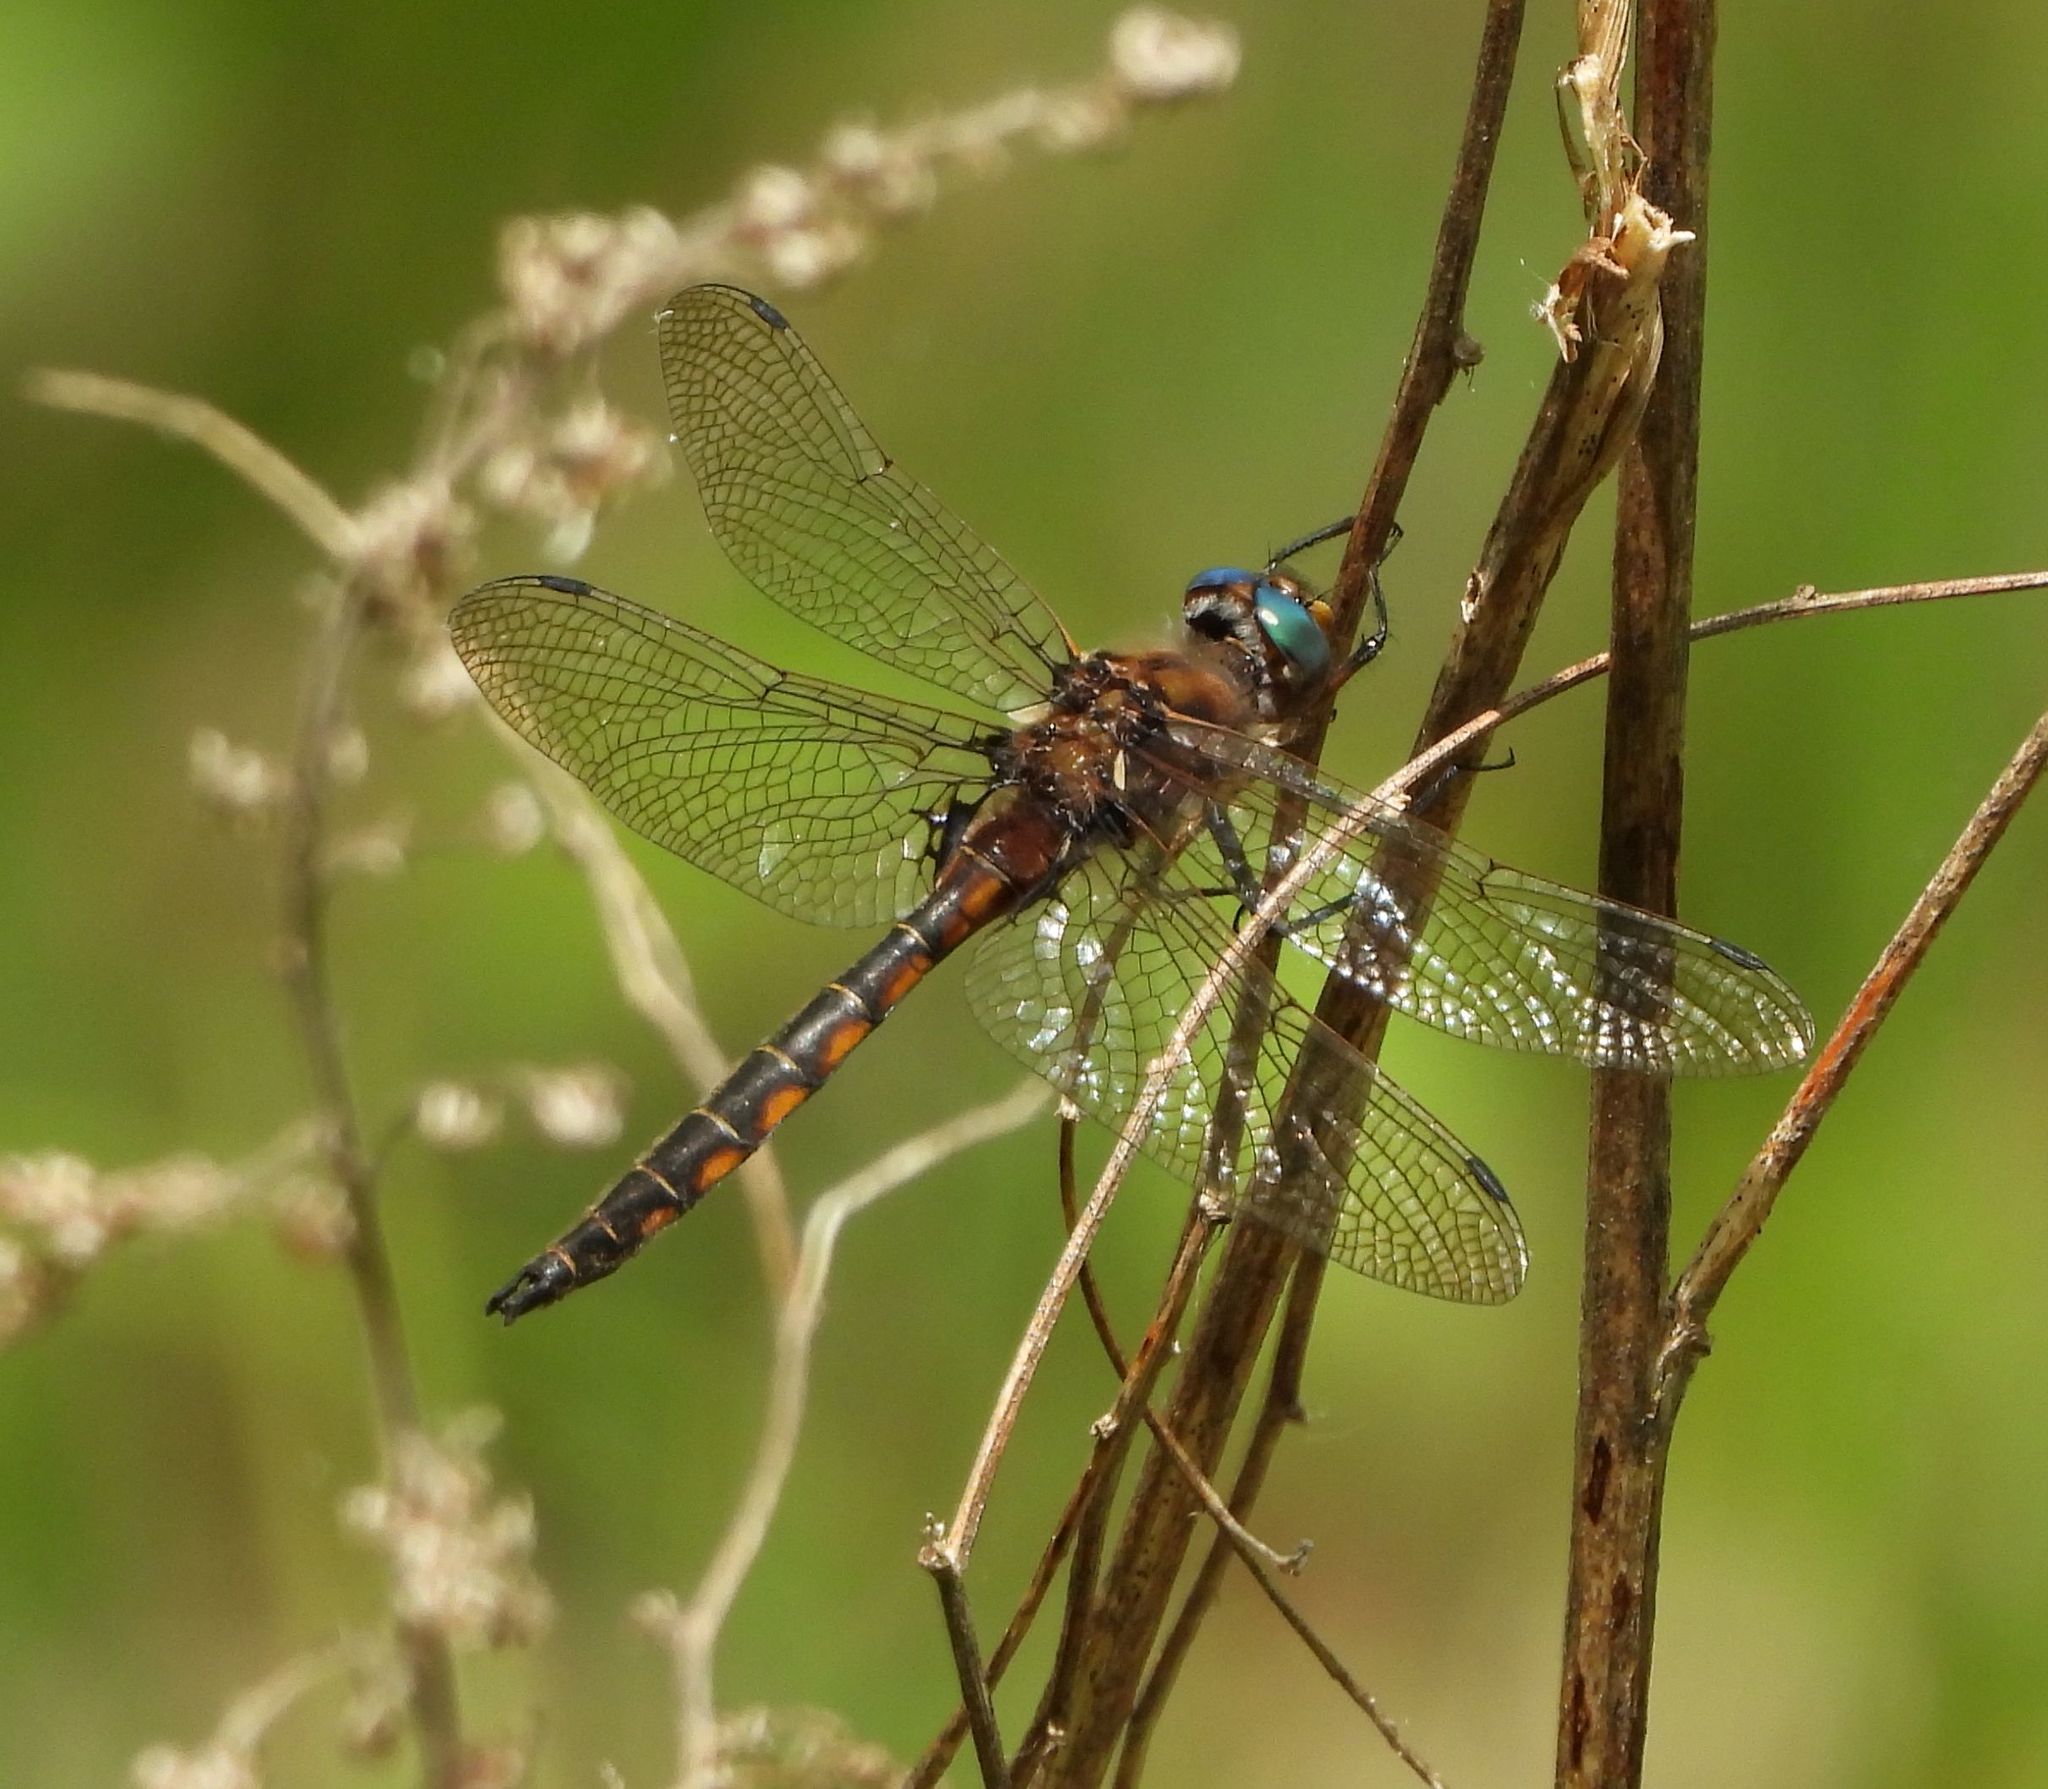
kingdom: Animalia
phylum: Arthropoda
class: Insecta
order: Odonata
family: Corduliidae
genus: Epitheca
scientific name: Epitheca canis
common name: Beaverpond baskettail
